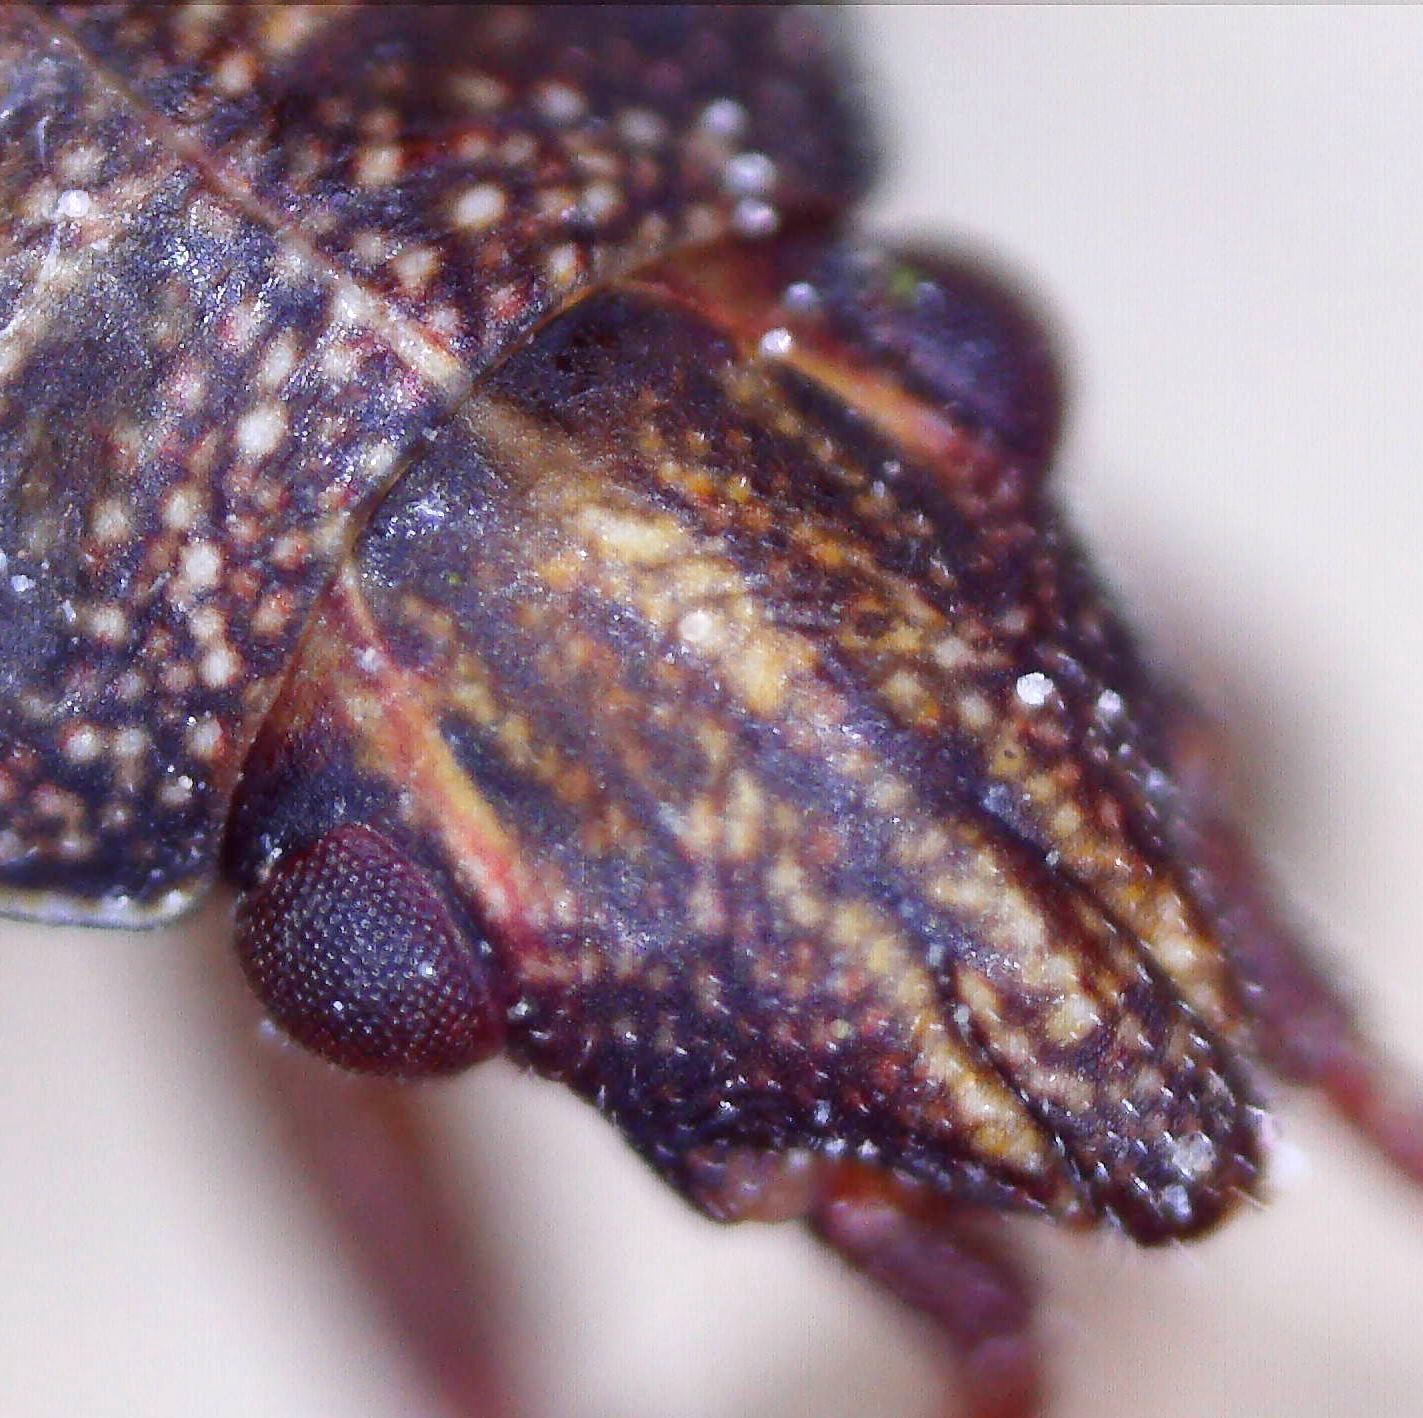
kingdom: Animalia
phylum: Arthropoda
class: Insecta
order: Hemiptera
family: Lygaeidae
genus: Orsillus
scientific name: Orsillus depressus
